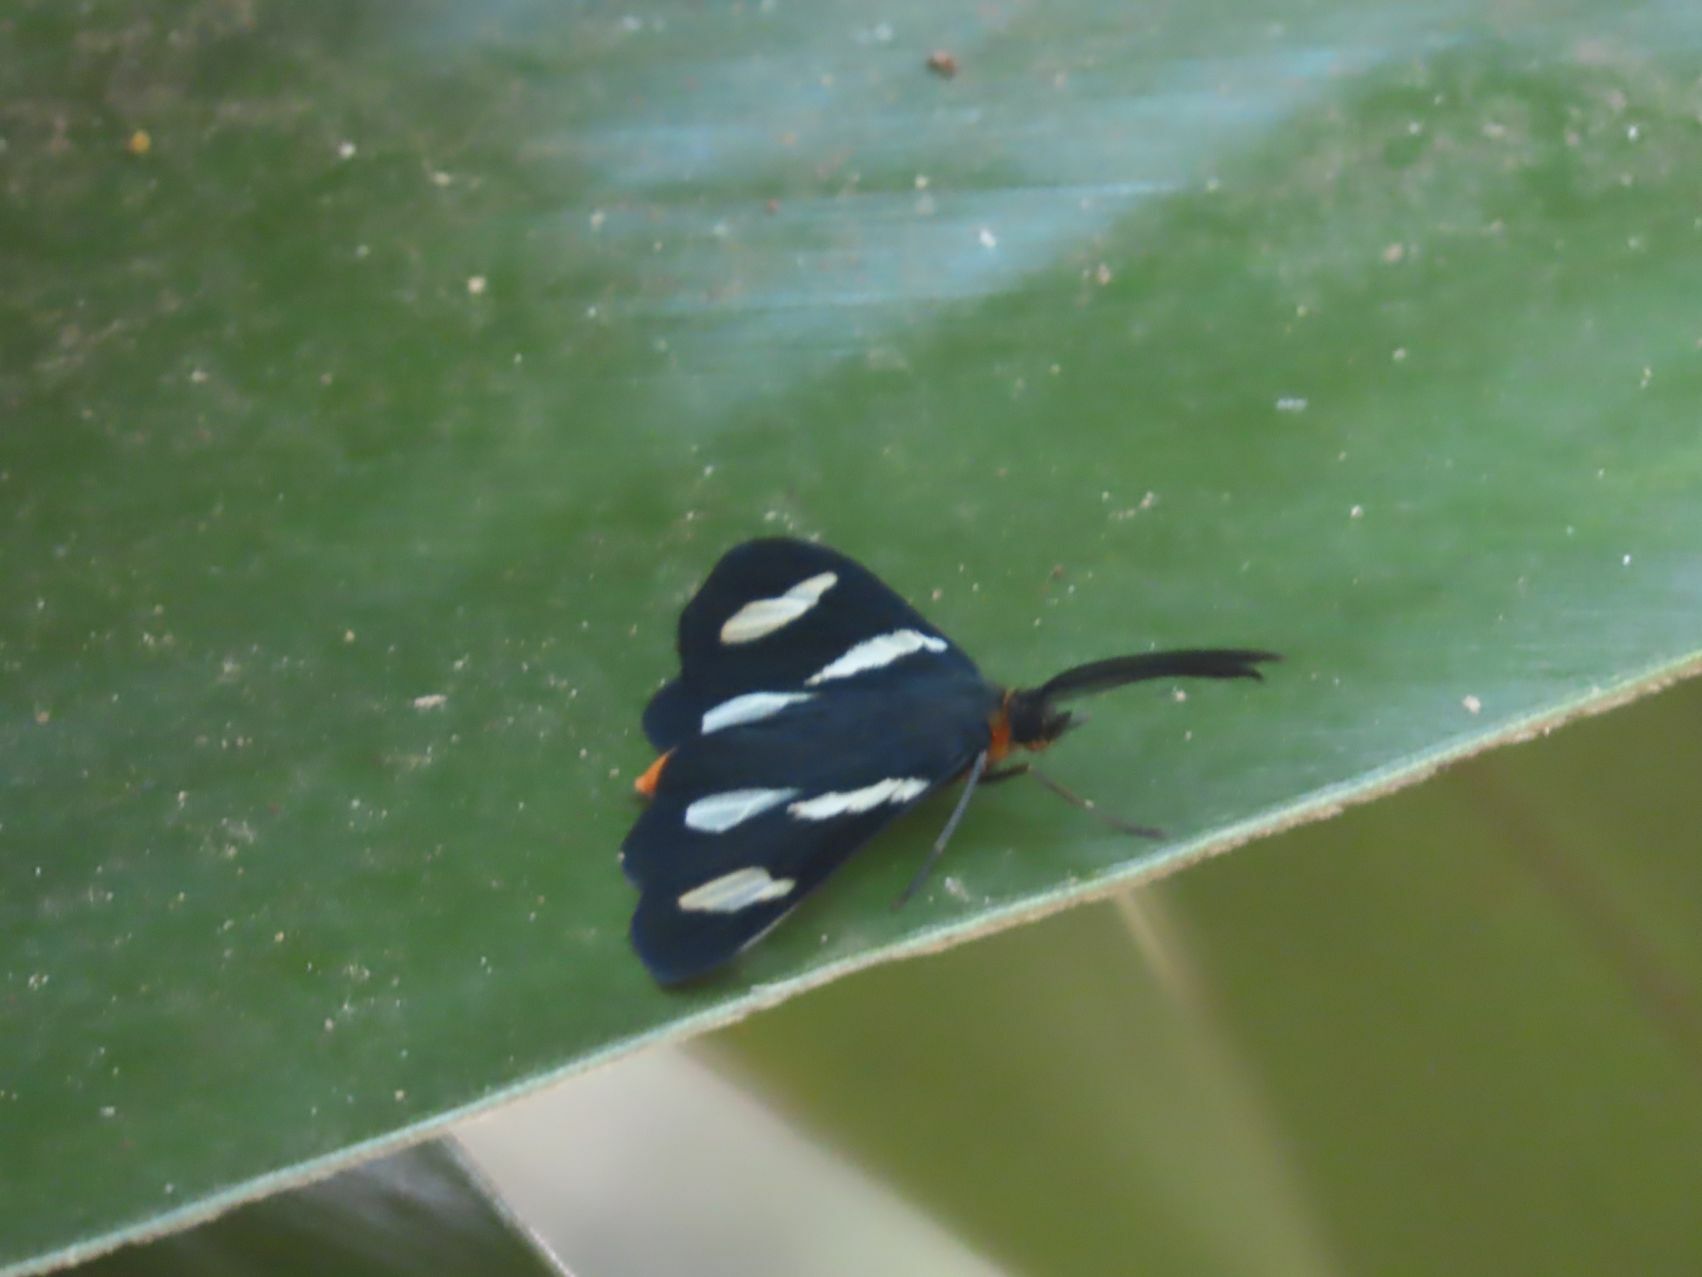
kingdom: Animalia
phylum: Arthropoda
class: Insecta
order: Lepidoptera
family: Geometridae
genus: Pitthea
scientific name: Pitthea trifasciata
